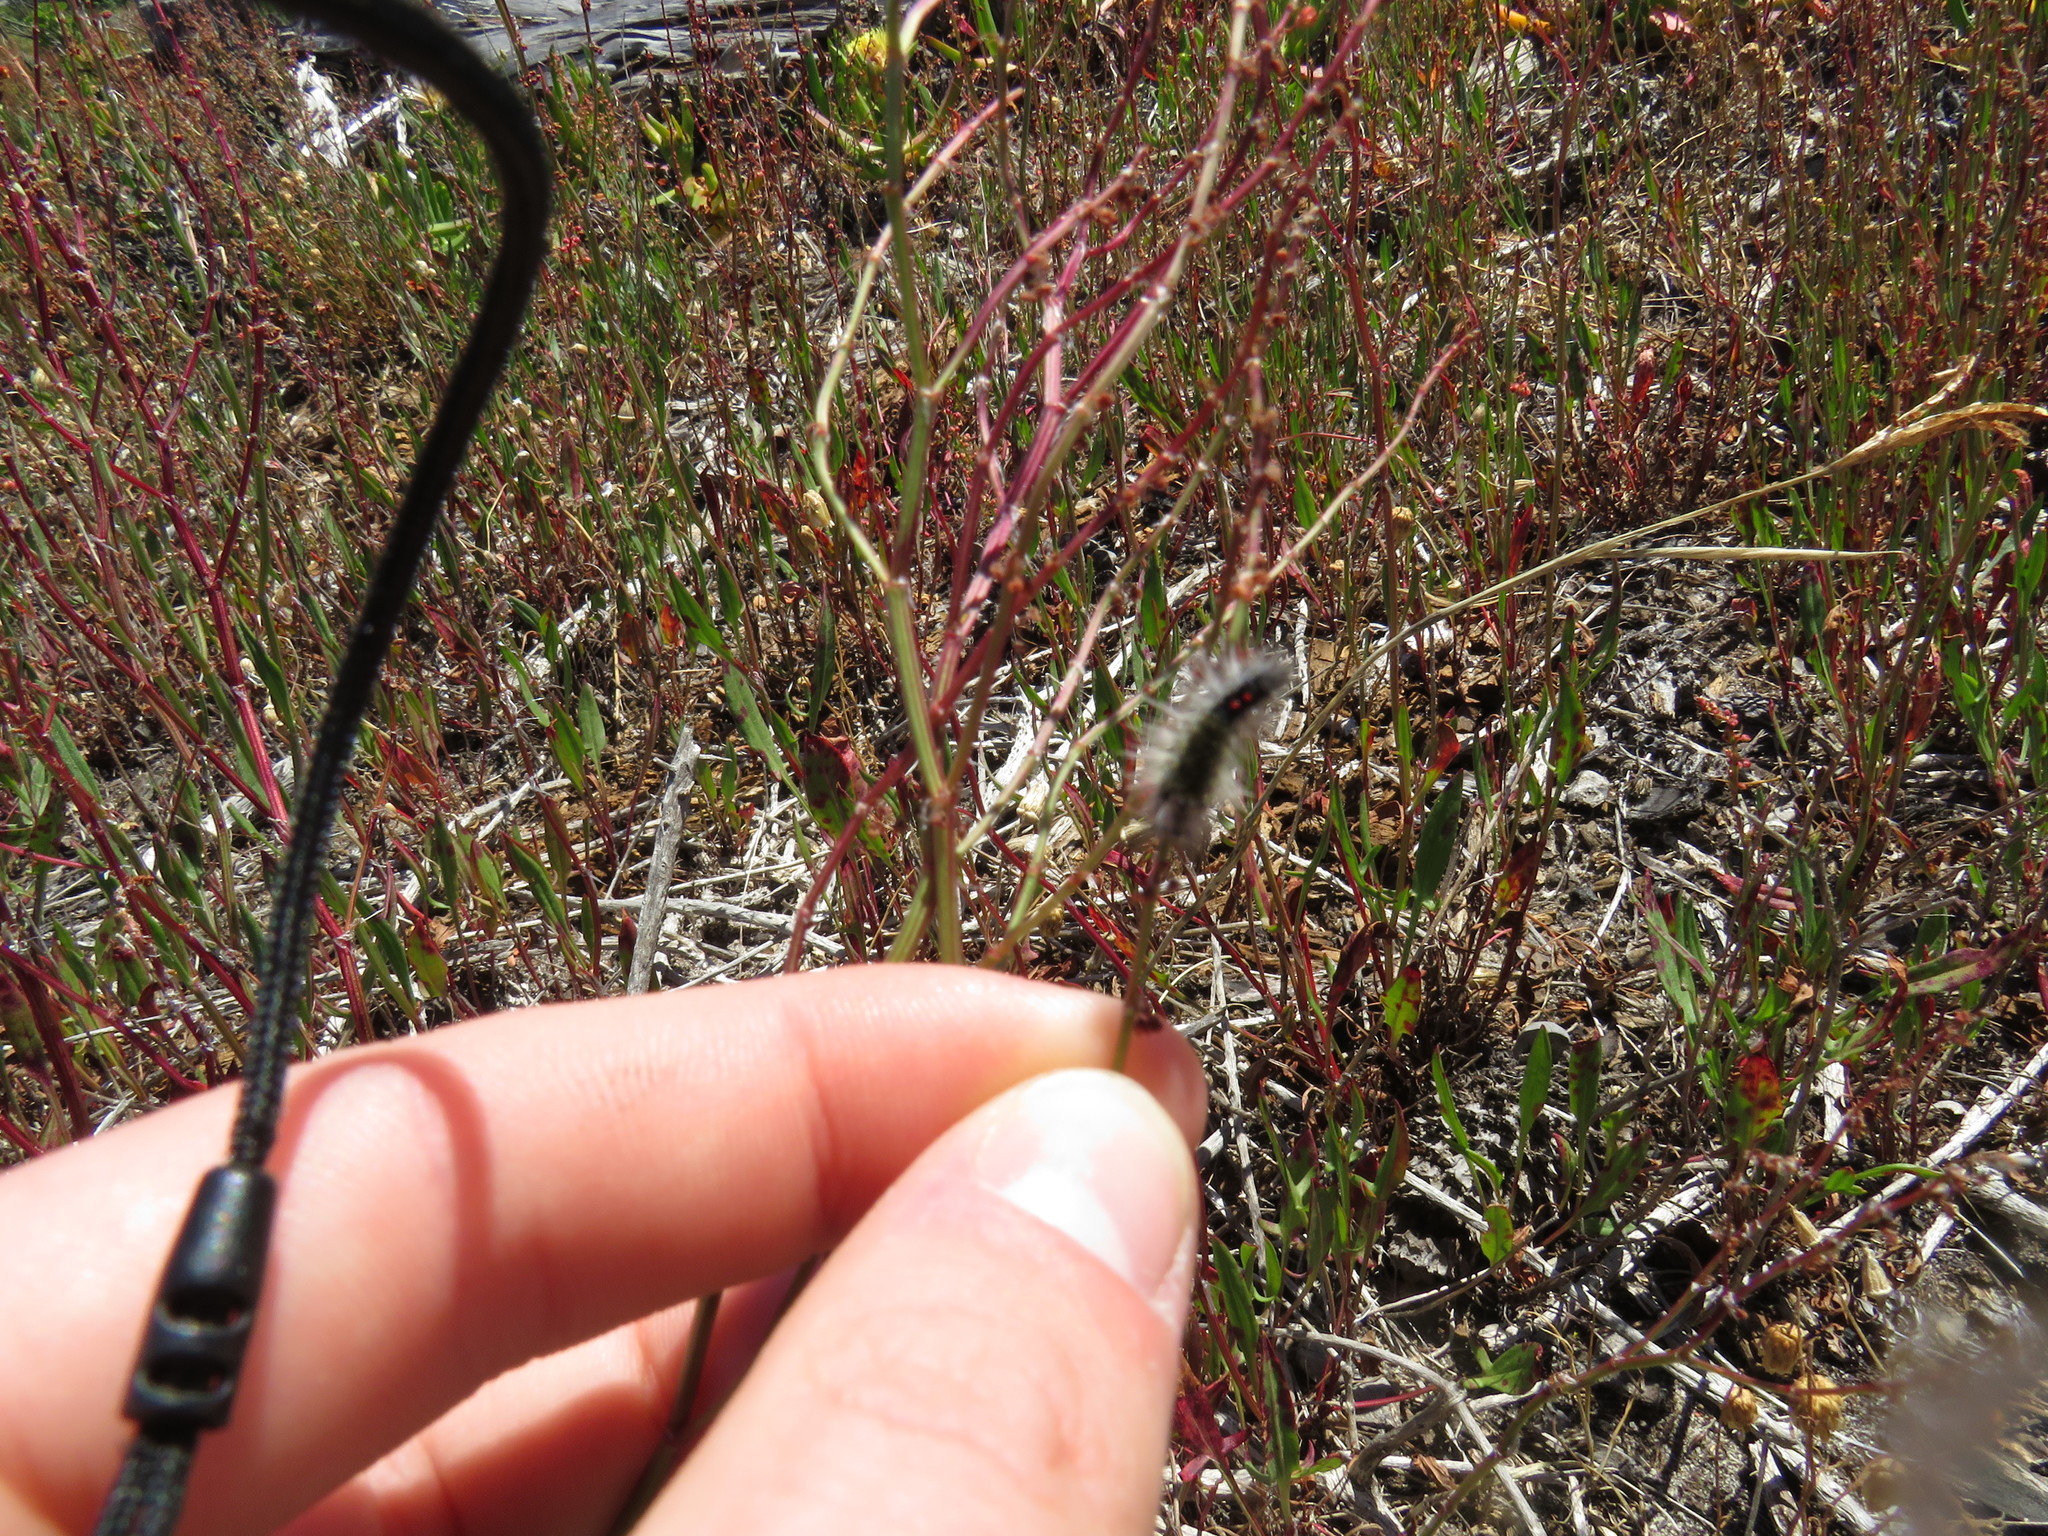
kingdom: Plantae
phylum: Tracheophyta
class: Magnoliopsida
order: Caryophyllales
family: Polygonaceae
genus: Rumex
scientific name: Rumex acetosella
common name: Common sheep sorrel
